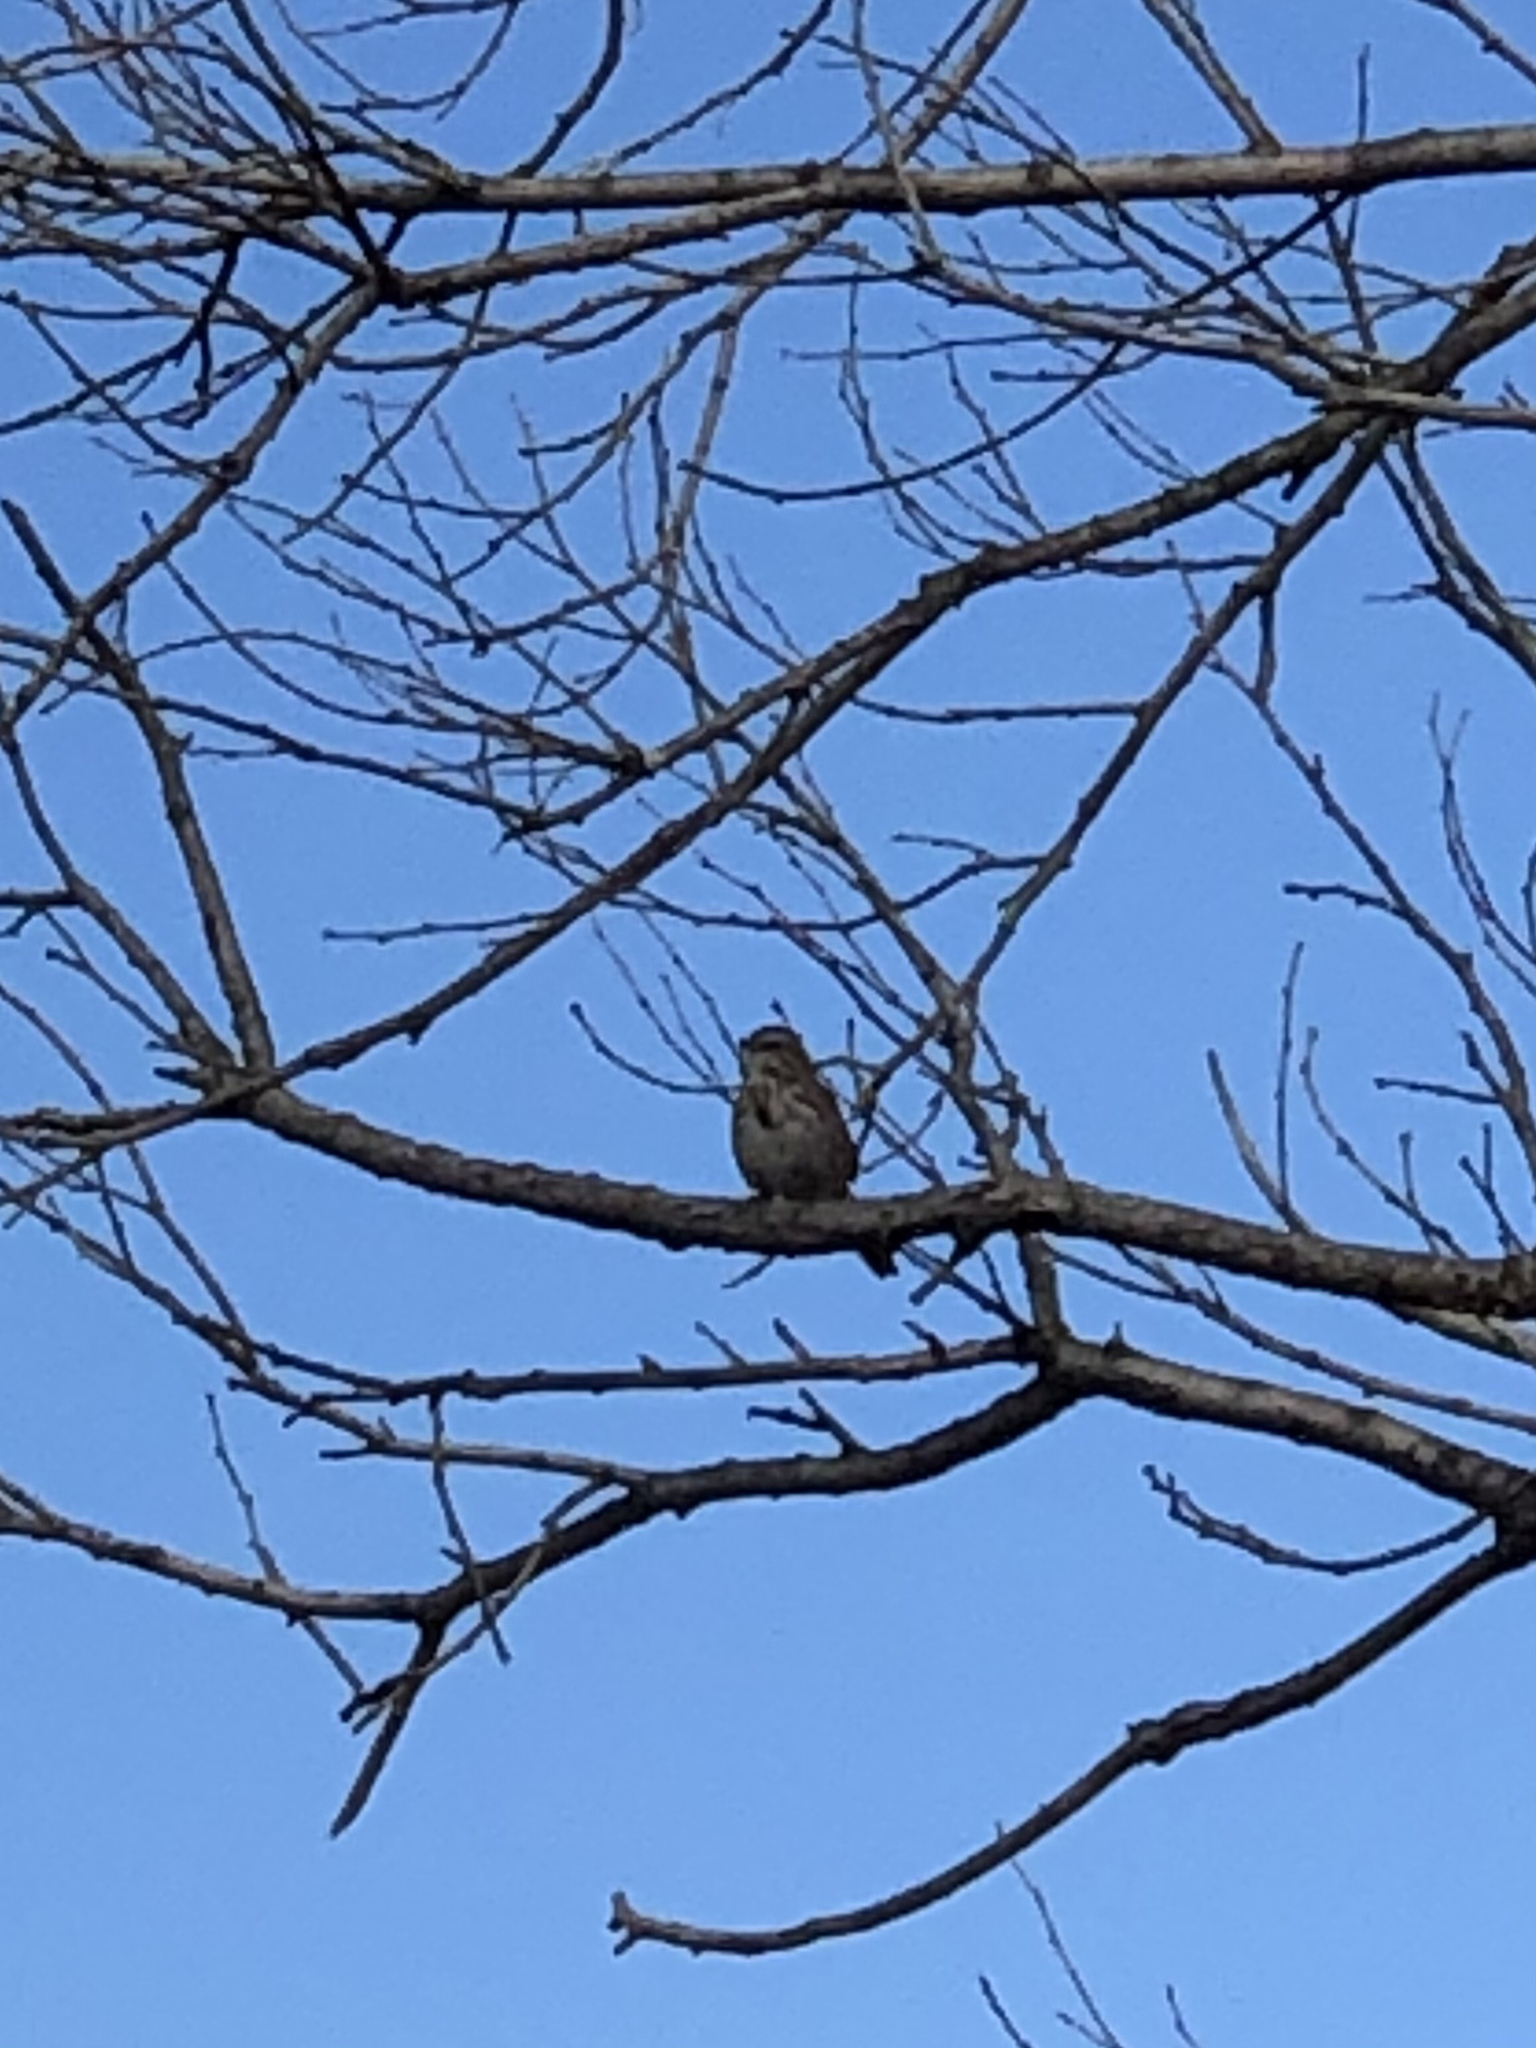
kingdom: Animalia
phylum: Chordata
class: Aves
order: Passeriformes
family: Passerellidae
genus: Melospiza
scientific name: Melospiza melodia
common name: Song sparrow
